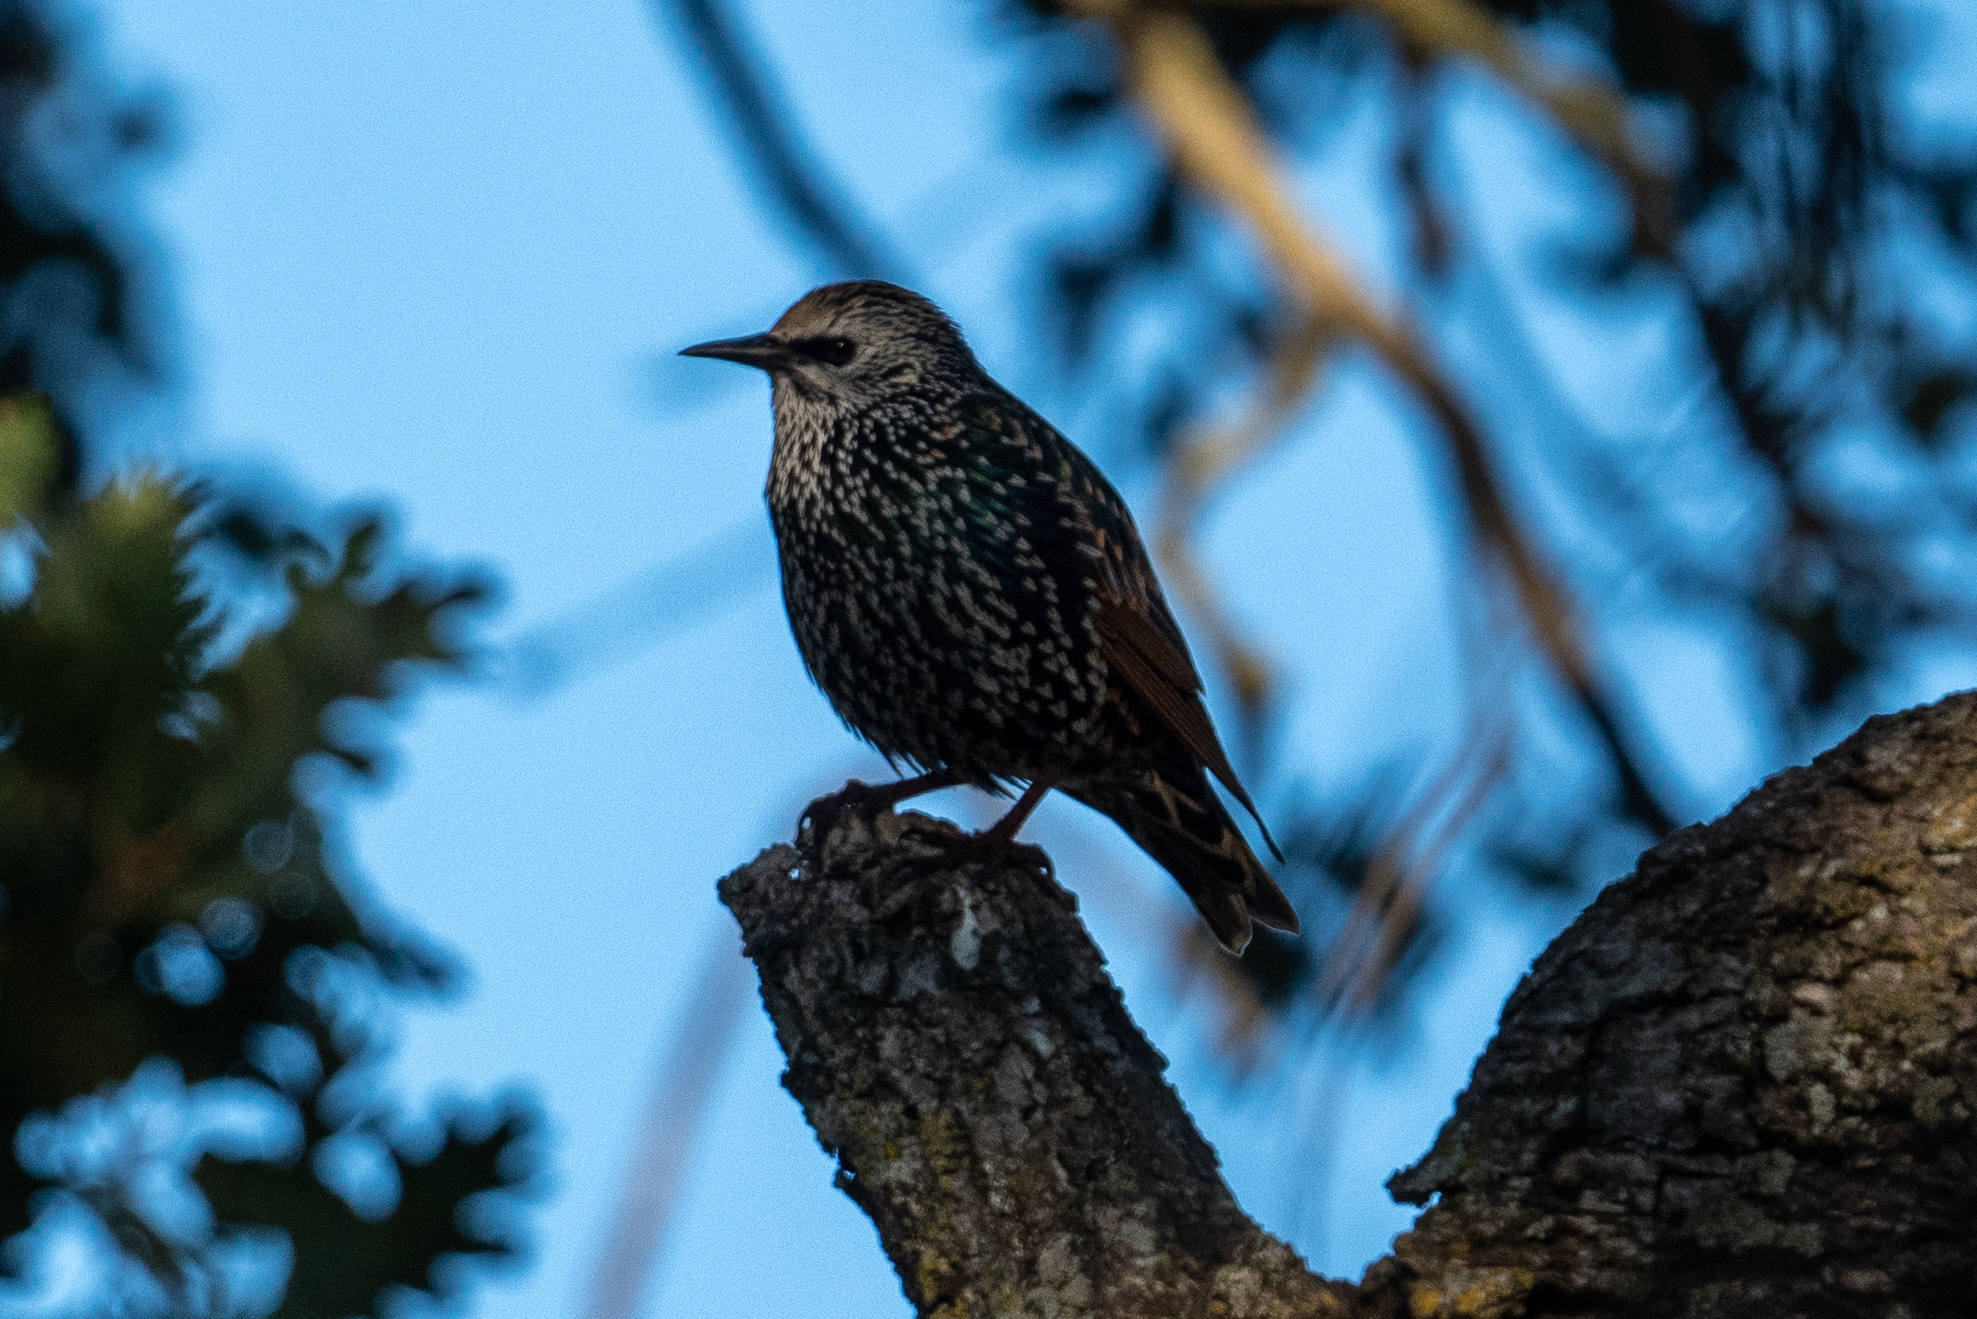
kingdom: Animalia
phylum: Chordata
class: Aves
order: Passeriformes
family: Sturnidae
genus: Sturnus
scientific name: Sturnus vulgaris
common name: Common starling
